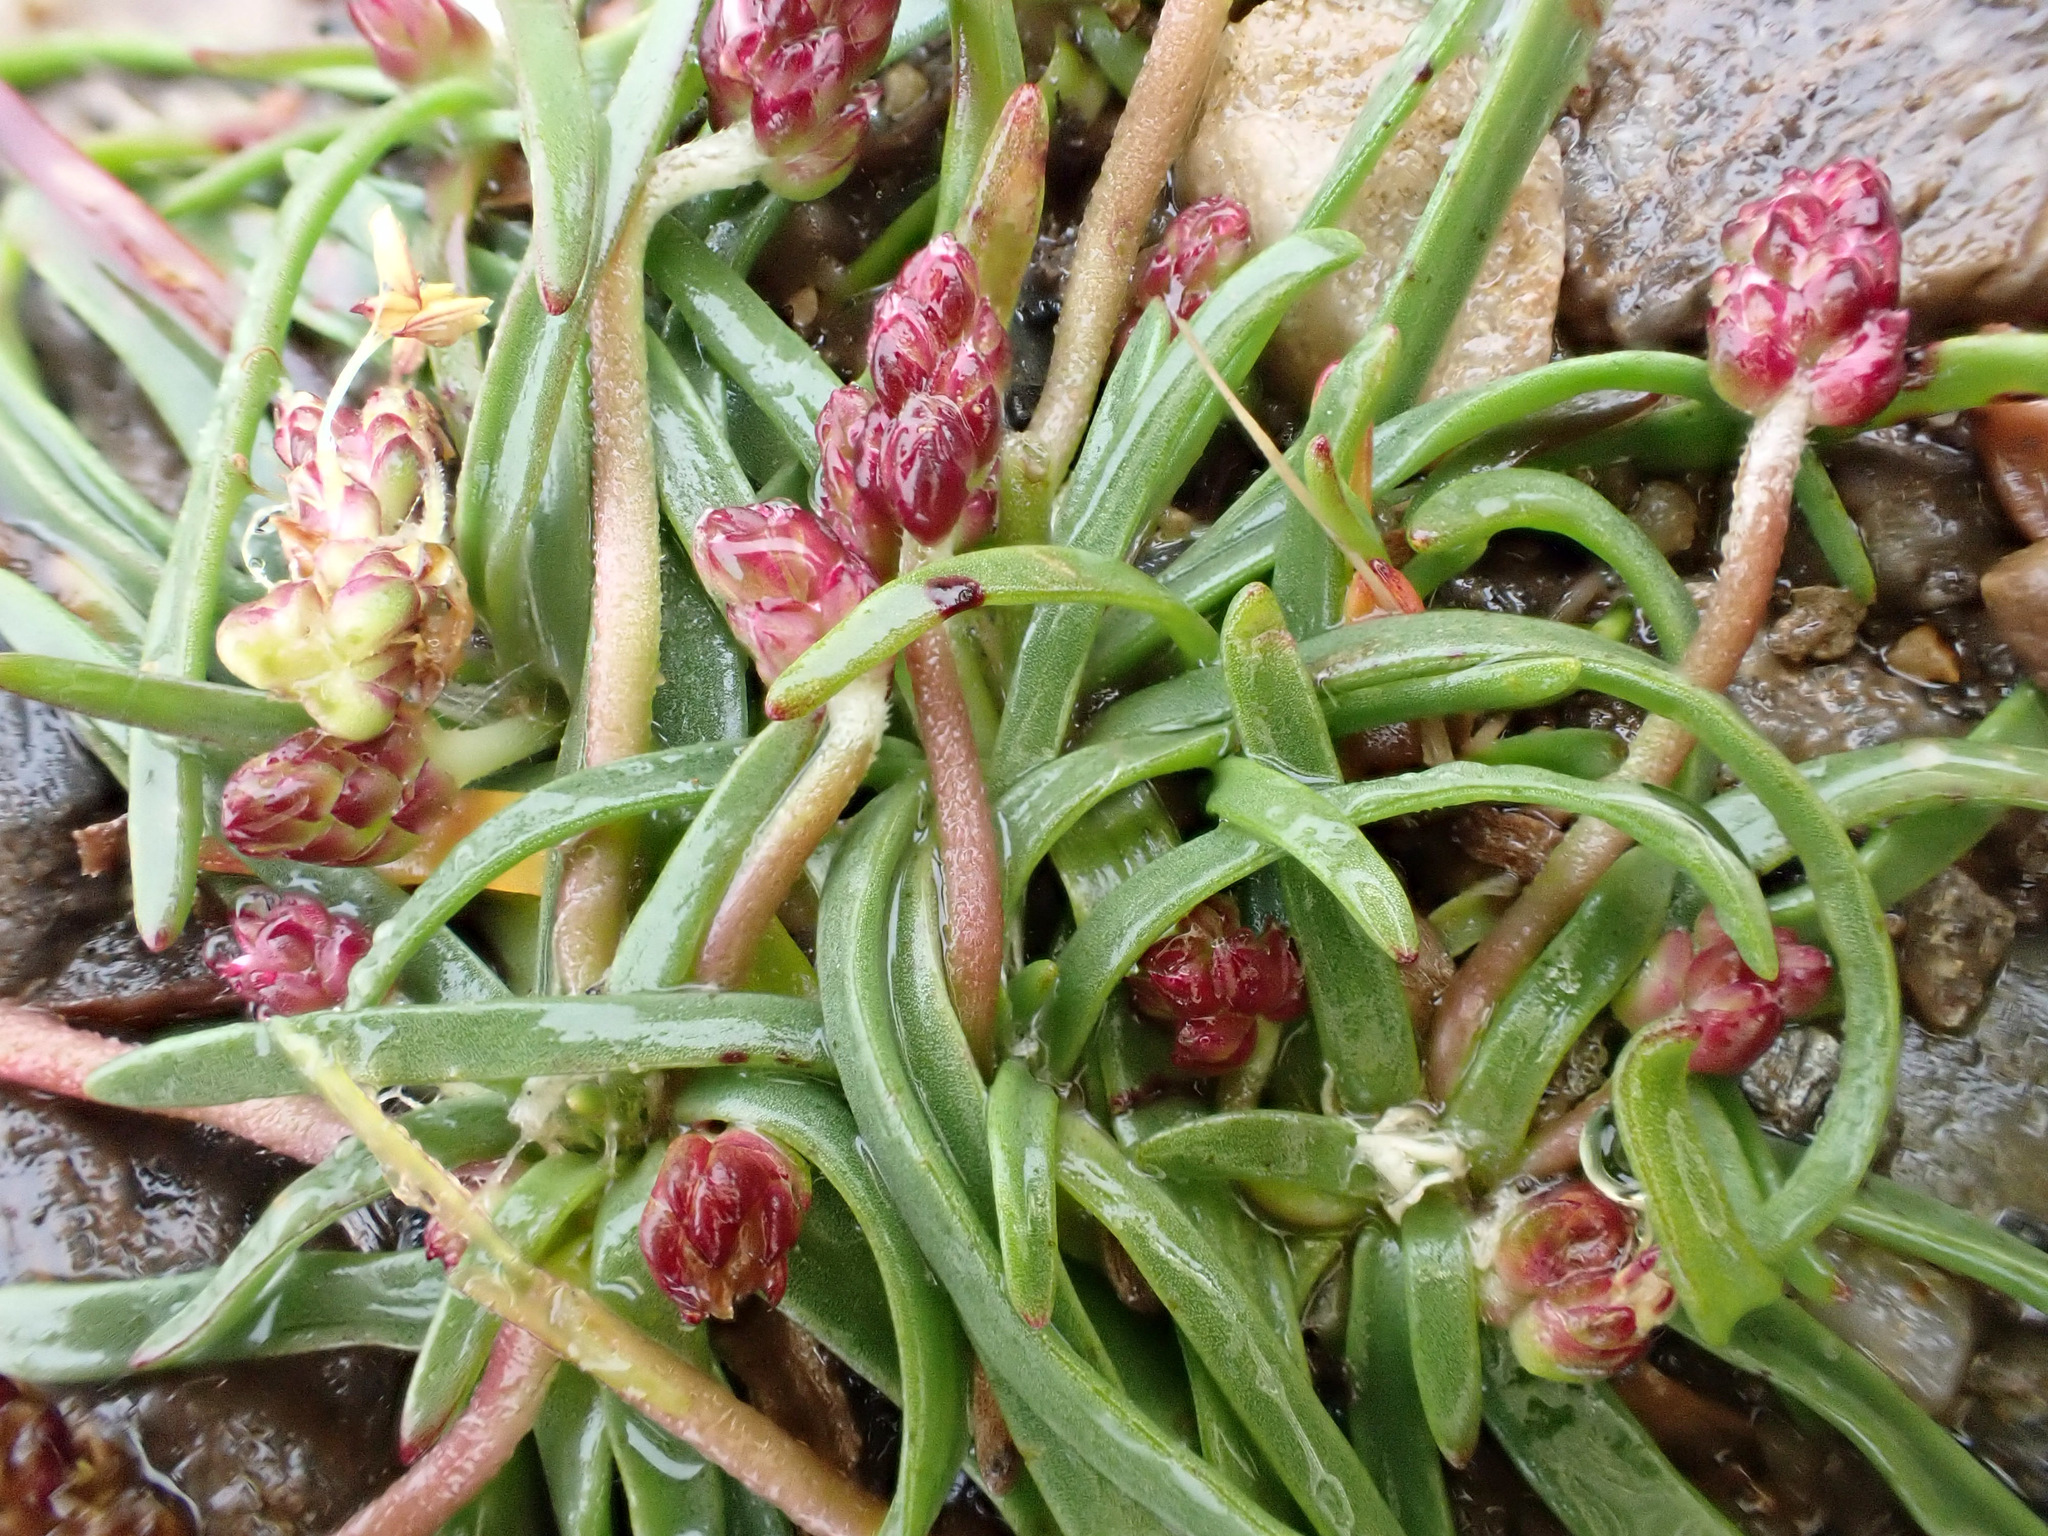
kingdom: Plantae
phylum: Tracheophyta
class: Magnoliopsida
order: Lamiales
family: Plantaginaceae
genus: Plantago
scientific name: Plantago maritima
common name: Sea plantain
